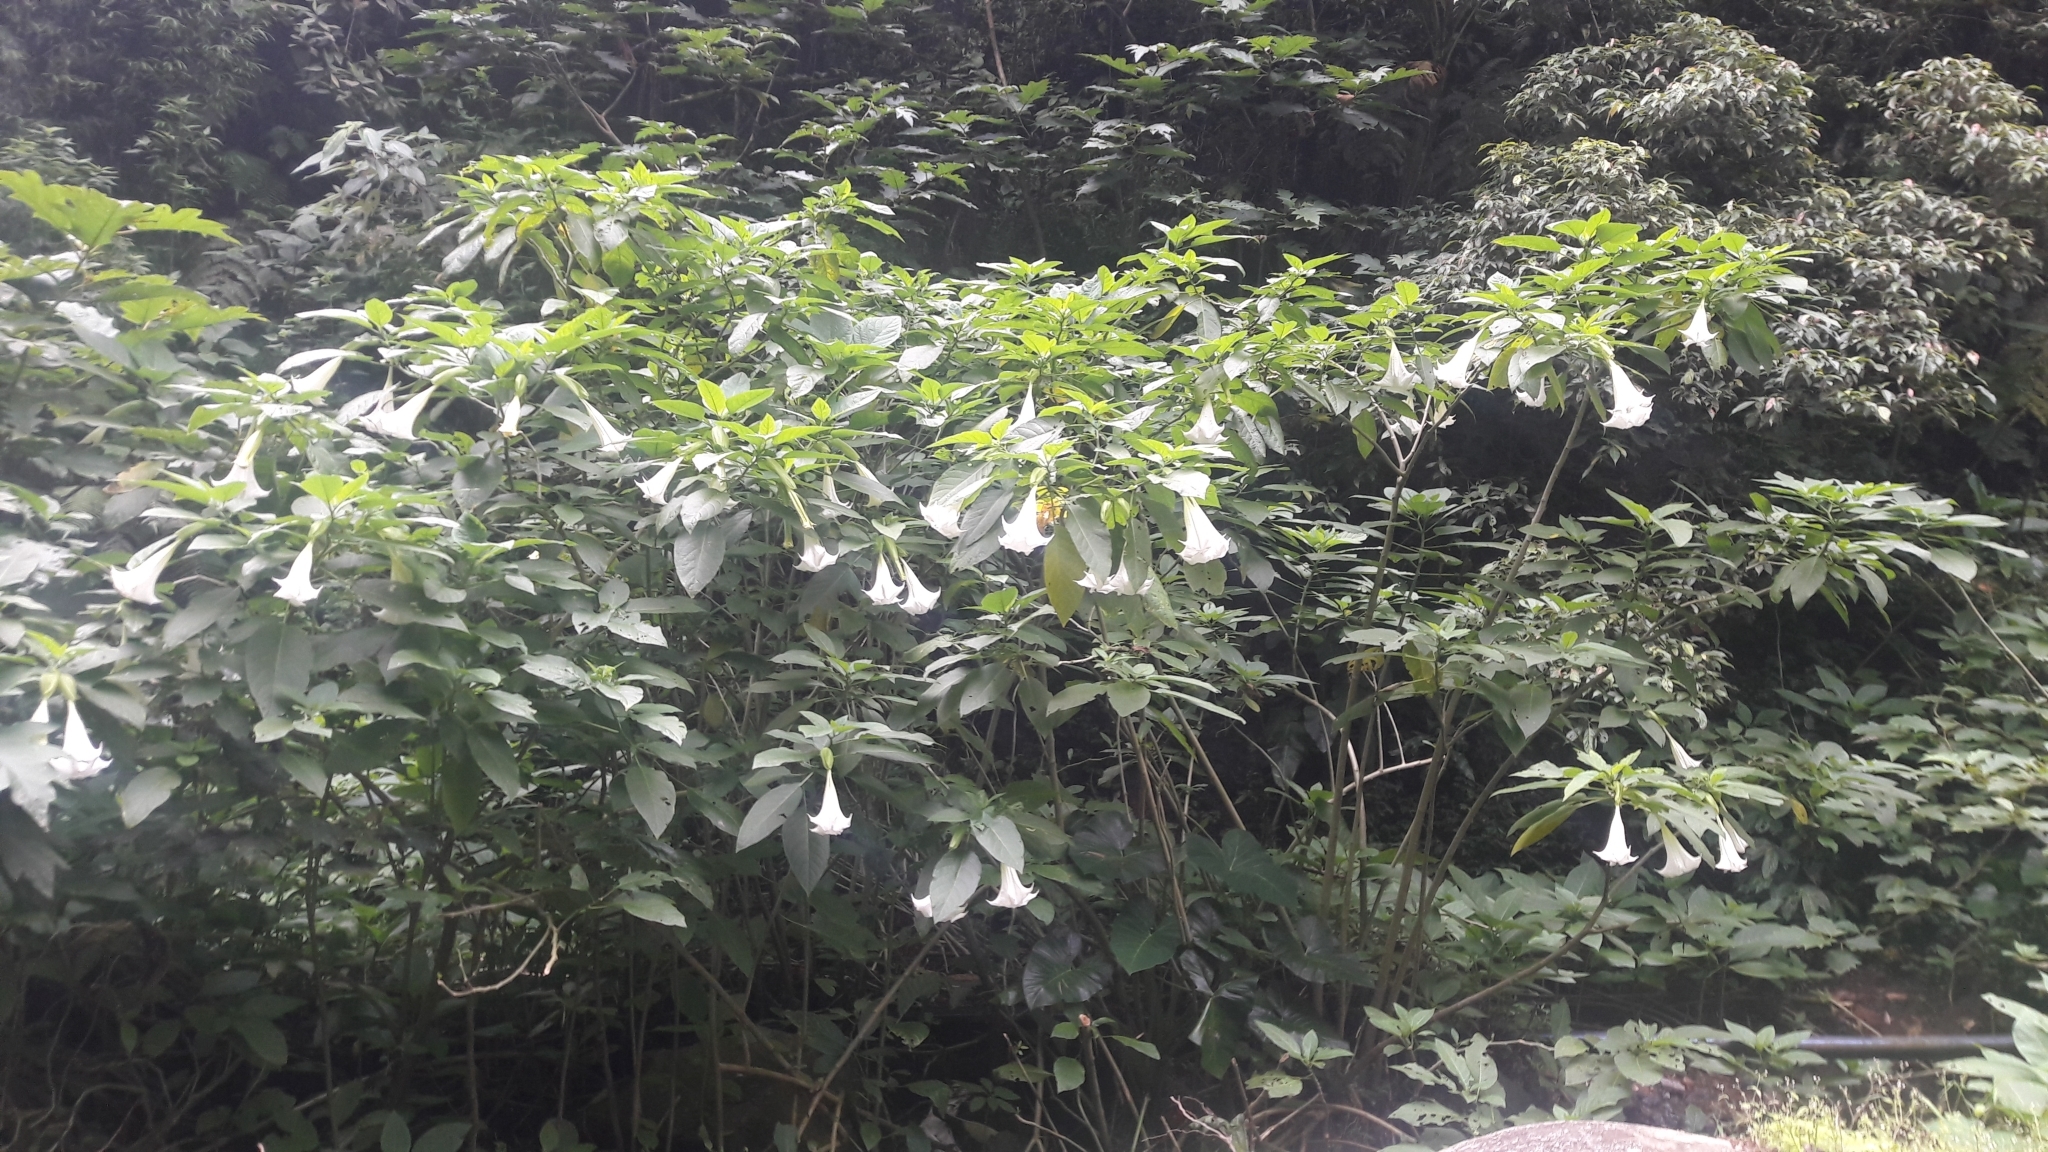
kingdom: Plantae
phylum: Tracheophyta
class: Magnoliopsida
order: Solanales
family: Solanaceae
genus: Brugmansia
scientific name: Brugmansia suaveolens
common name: Angel's tears
